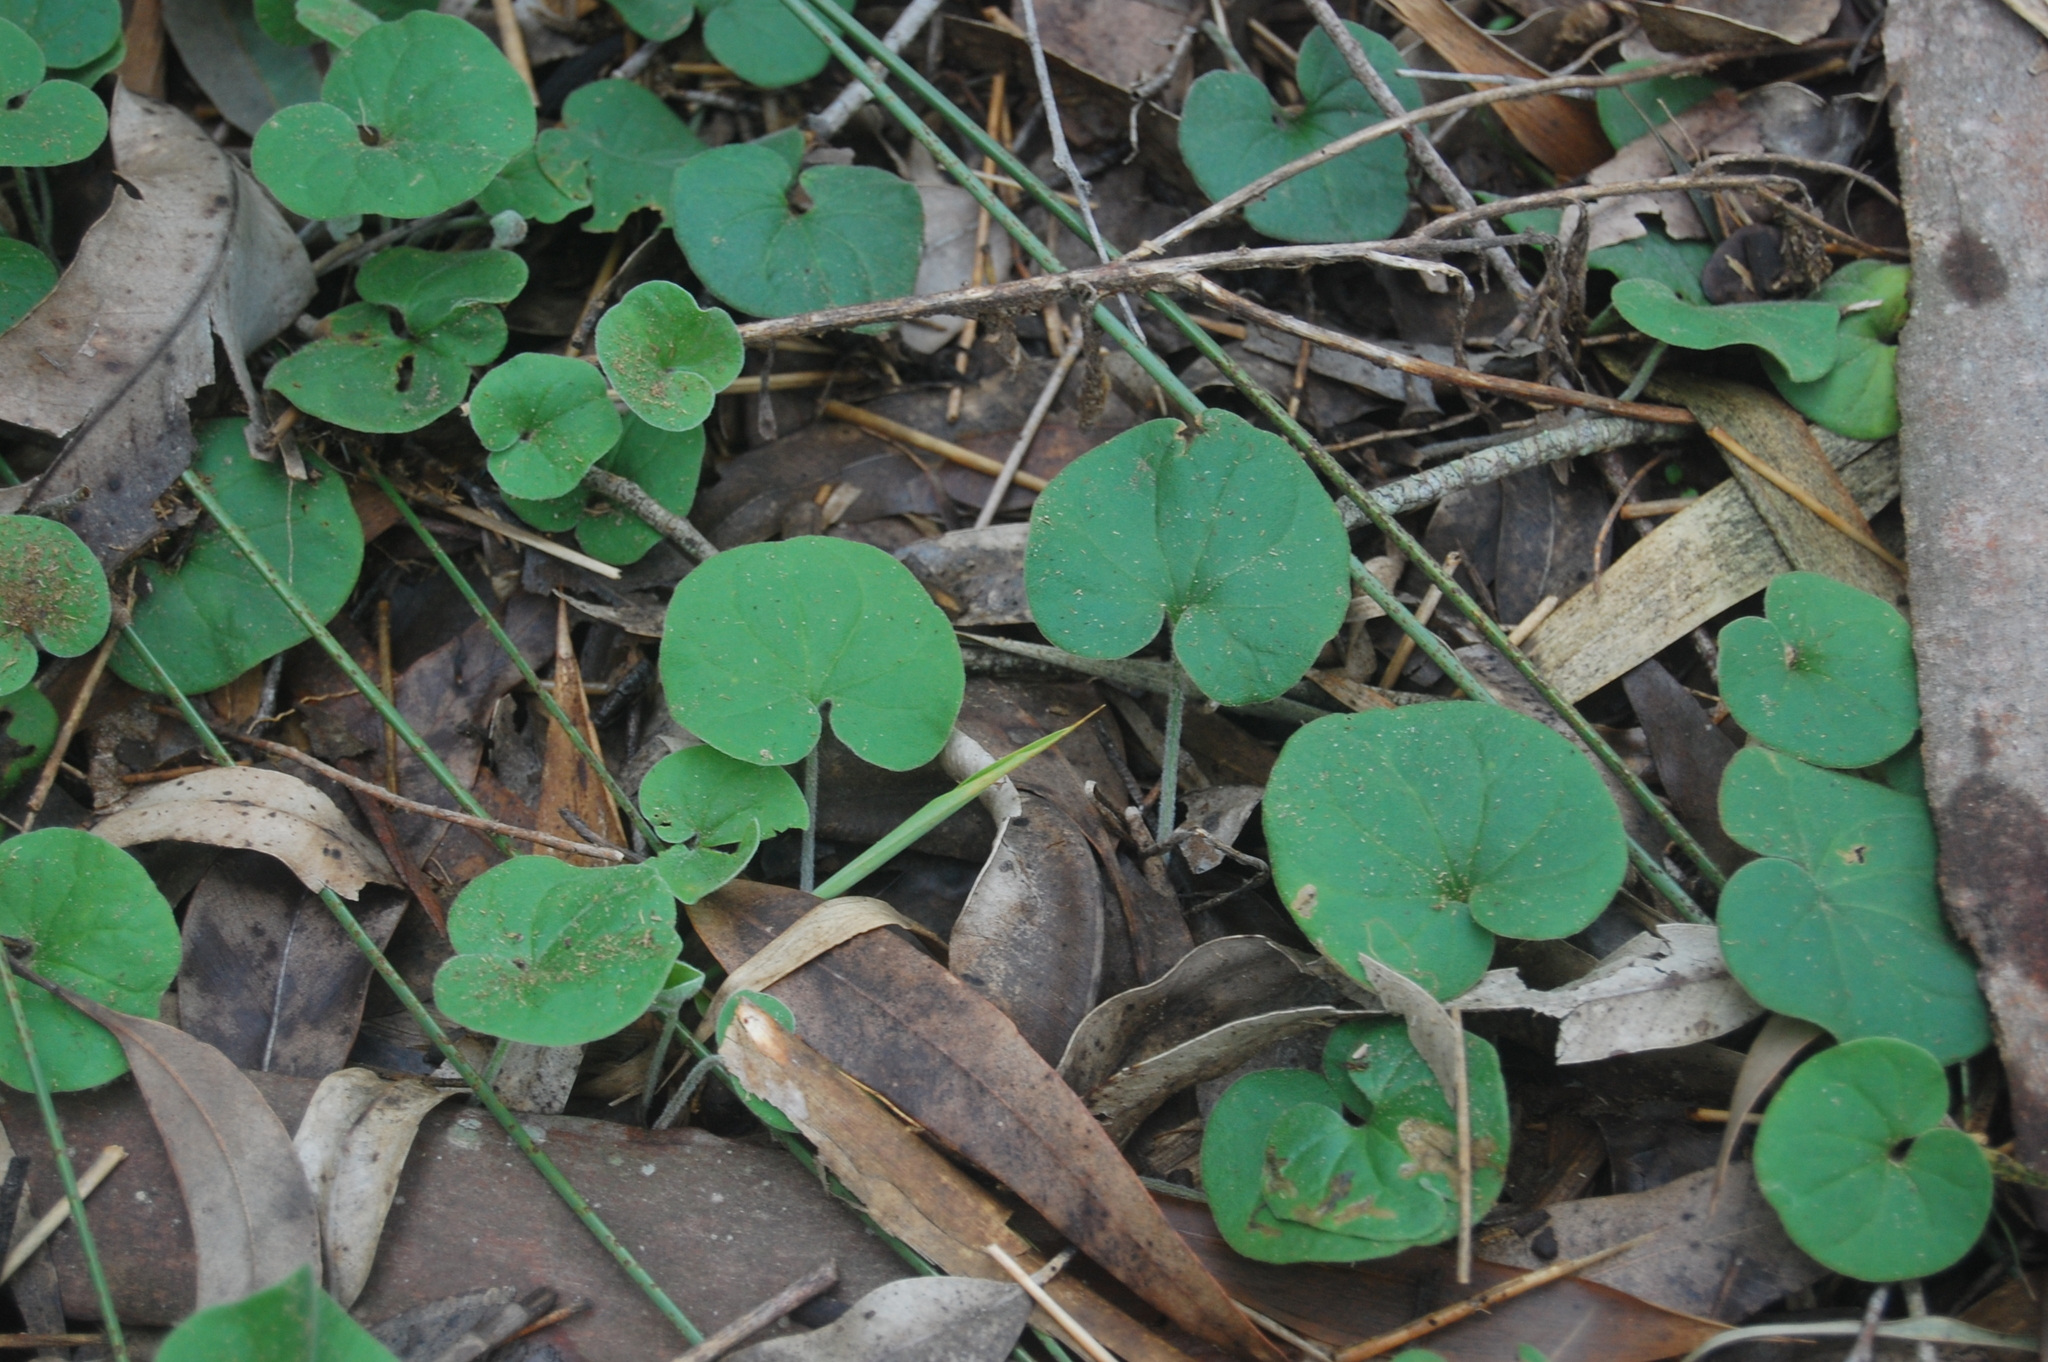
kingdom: Plantae
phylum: Tracheophyta
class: Magnoliopsida
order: Solanales
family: Convolvulaceae
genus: Dichondra
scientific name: Dichondra
